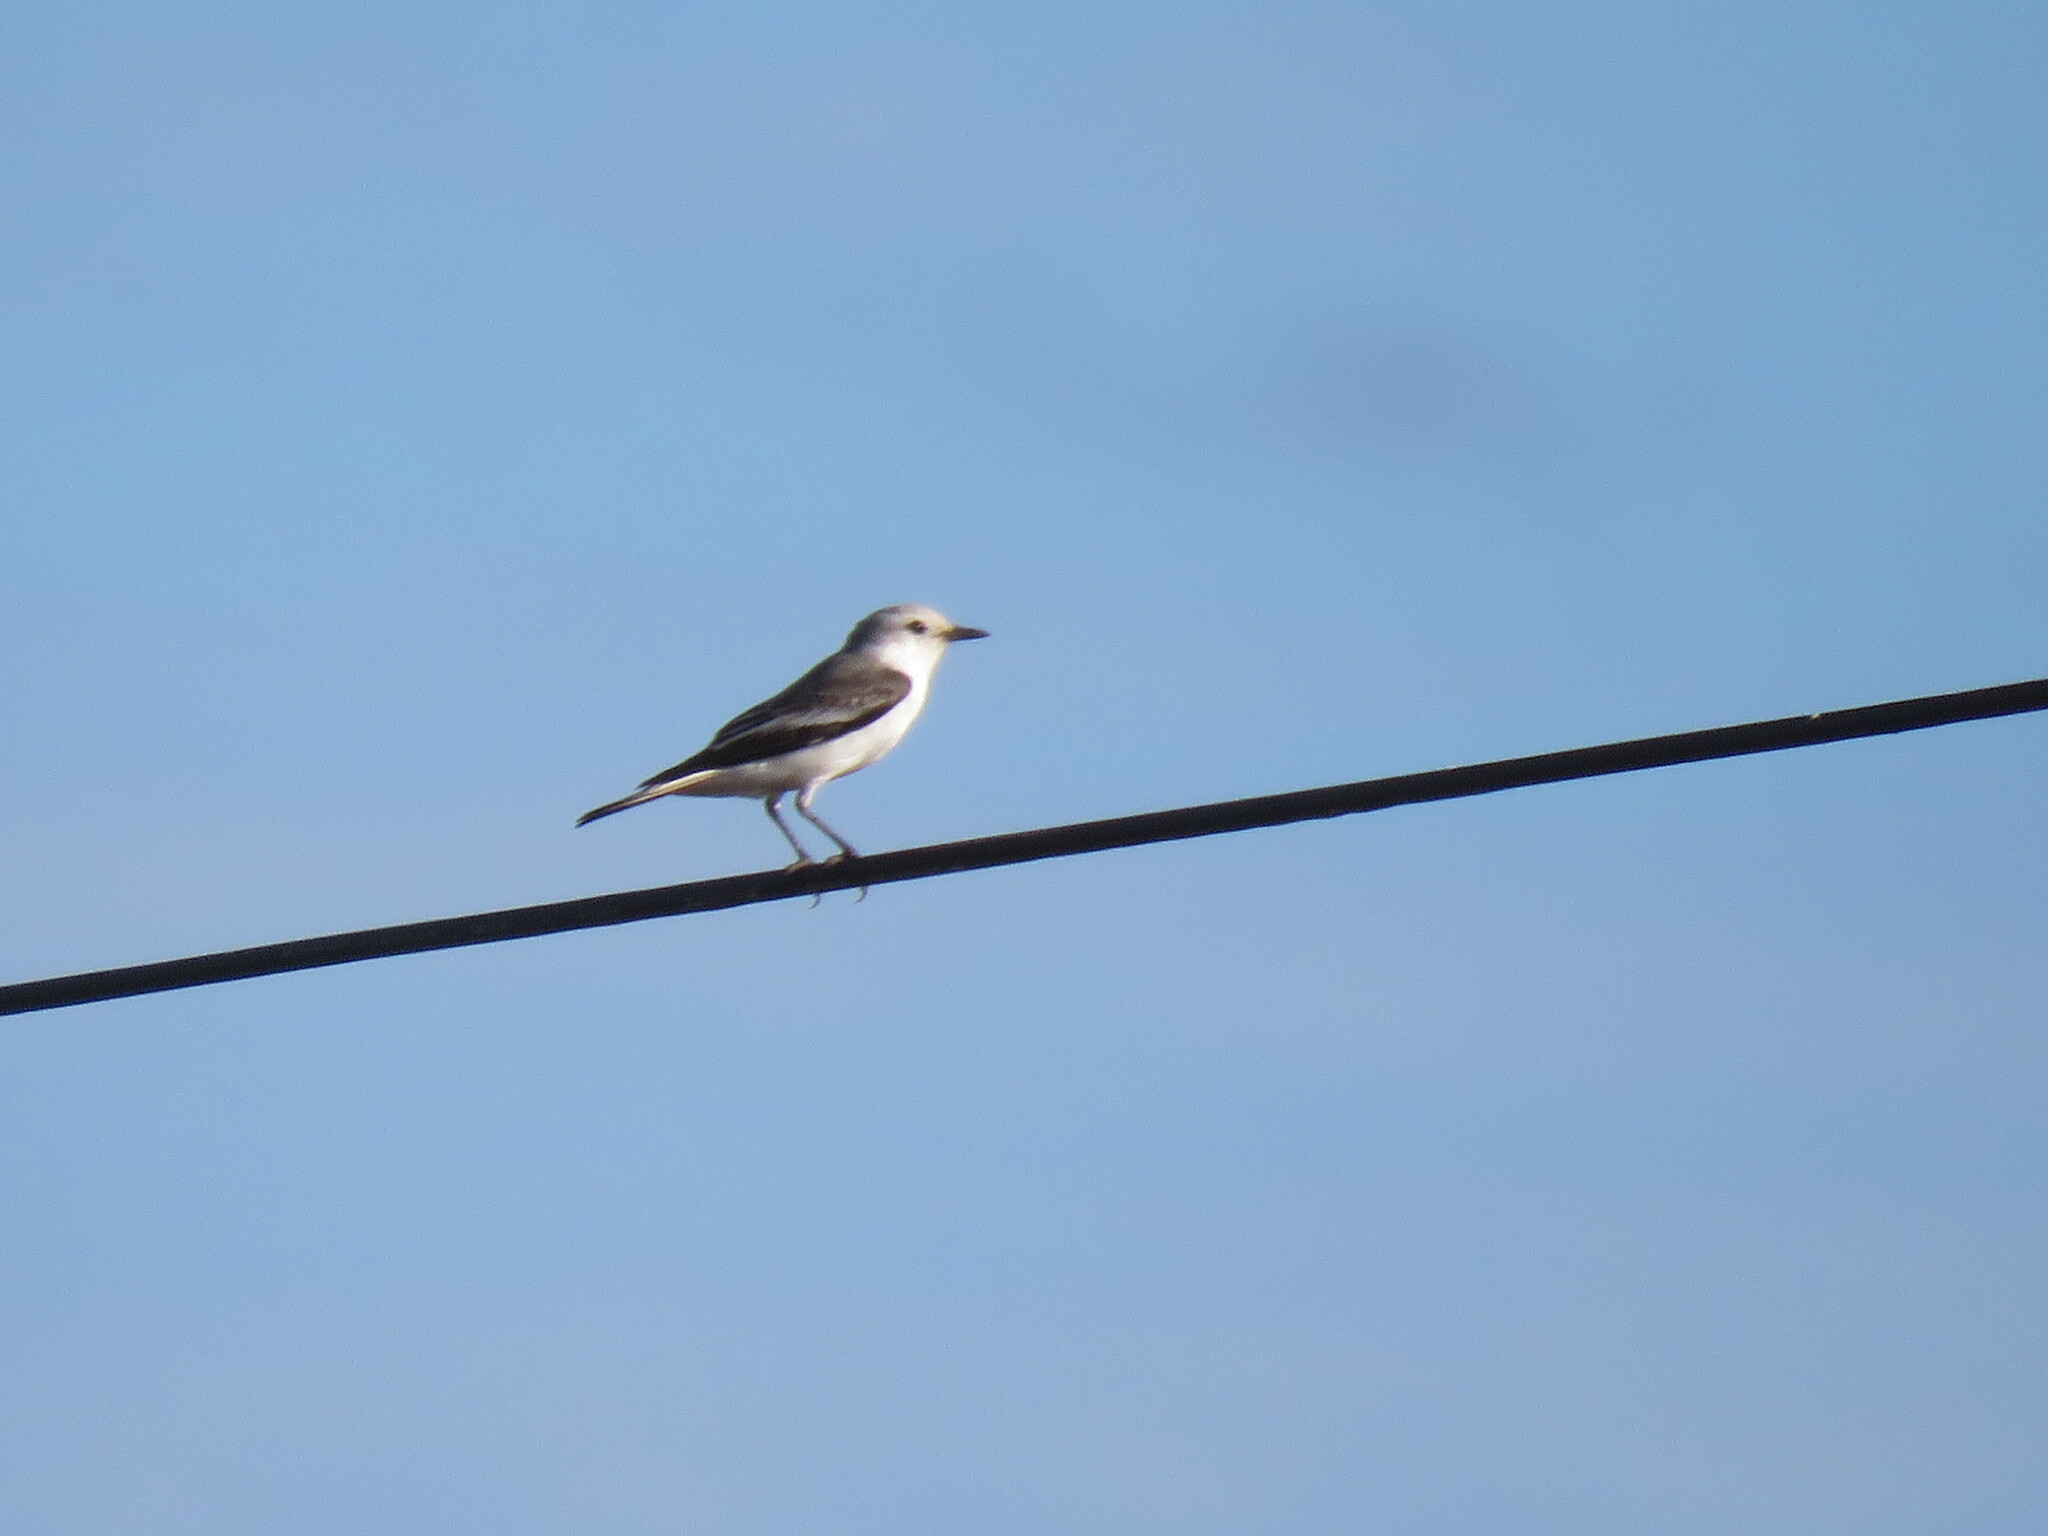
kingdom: Animalia
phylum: Chordata
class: Aves
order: Passeriformes
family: Tyrannidae
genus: Xolmis
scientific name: Xolmis velatus
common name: White-rumped monjita
